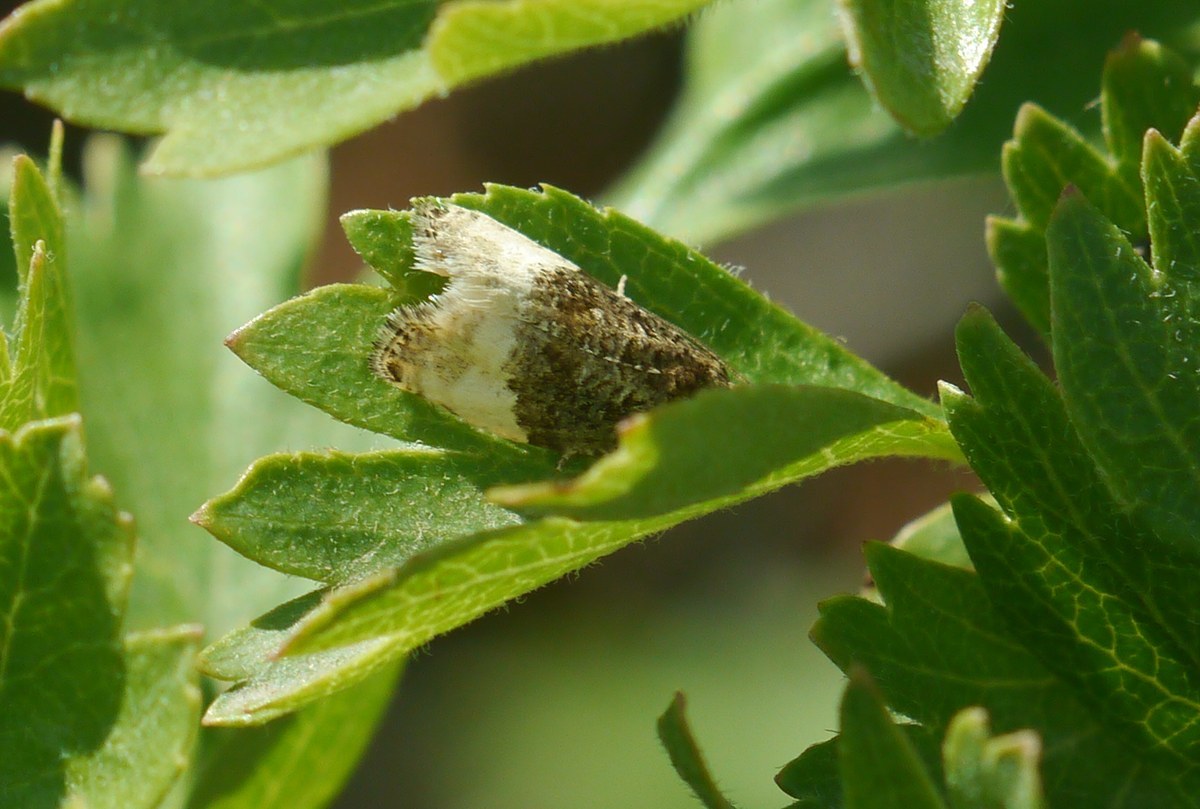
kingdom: Animalia
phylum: Arthropoda
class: Insecta
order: Lepidoptera
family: Tortricidae
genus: Hedya
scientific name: Hedya pruniana
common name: Plum tortrix
